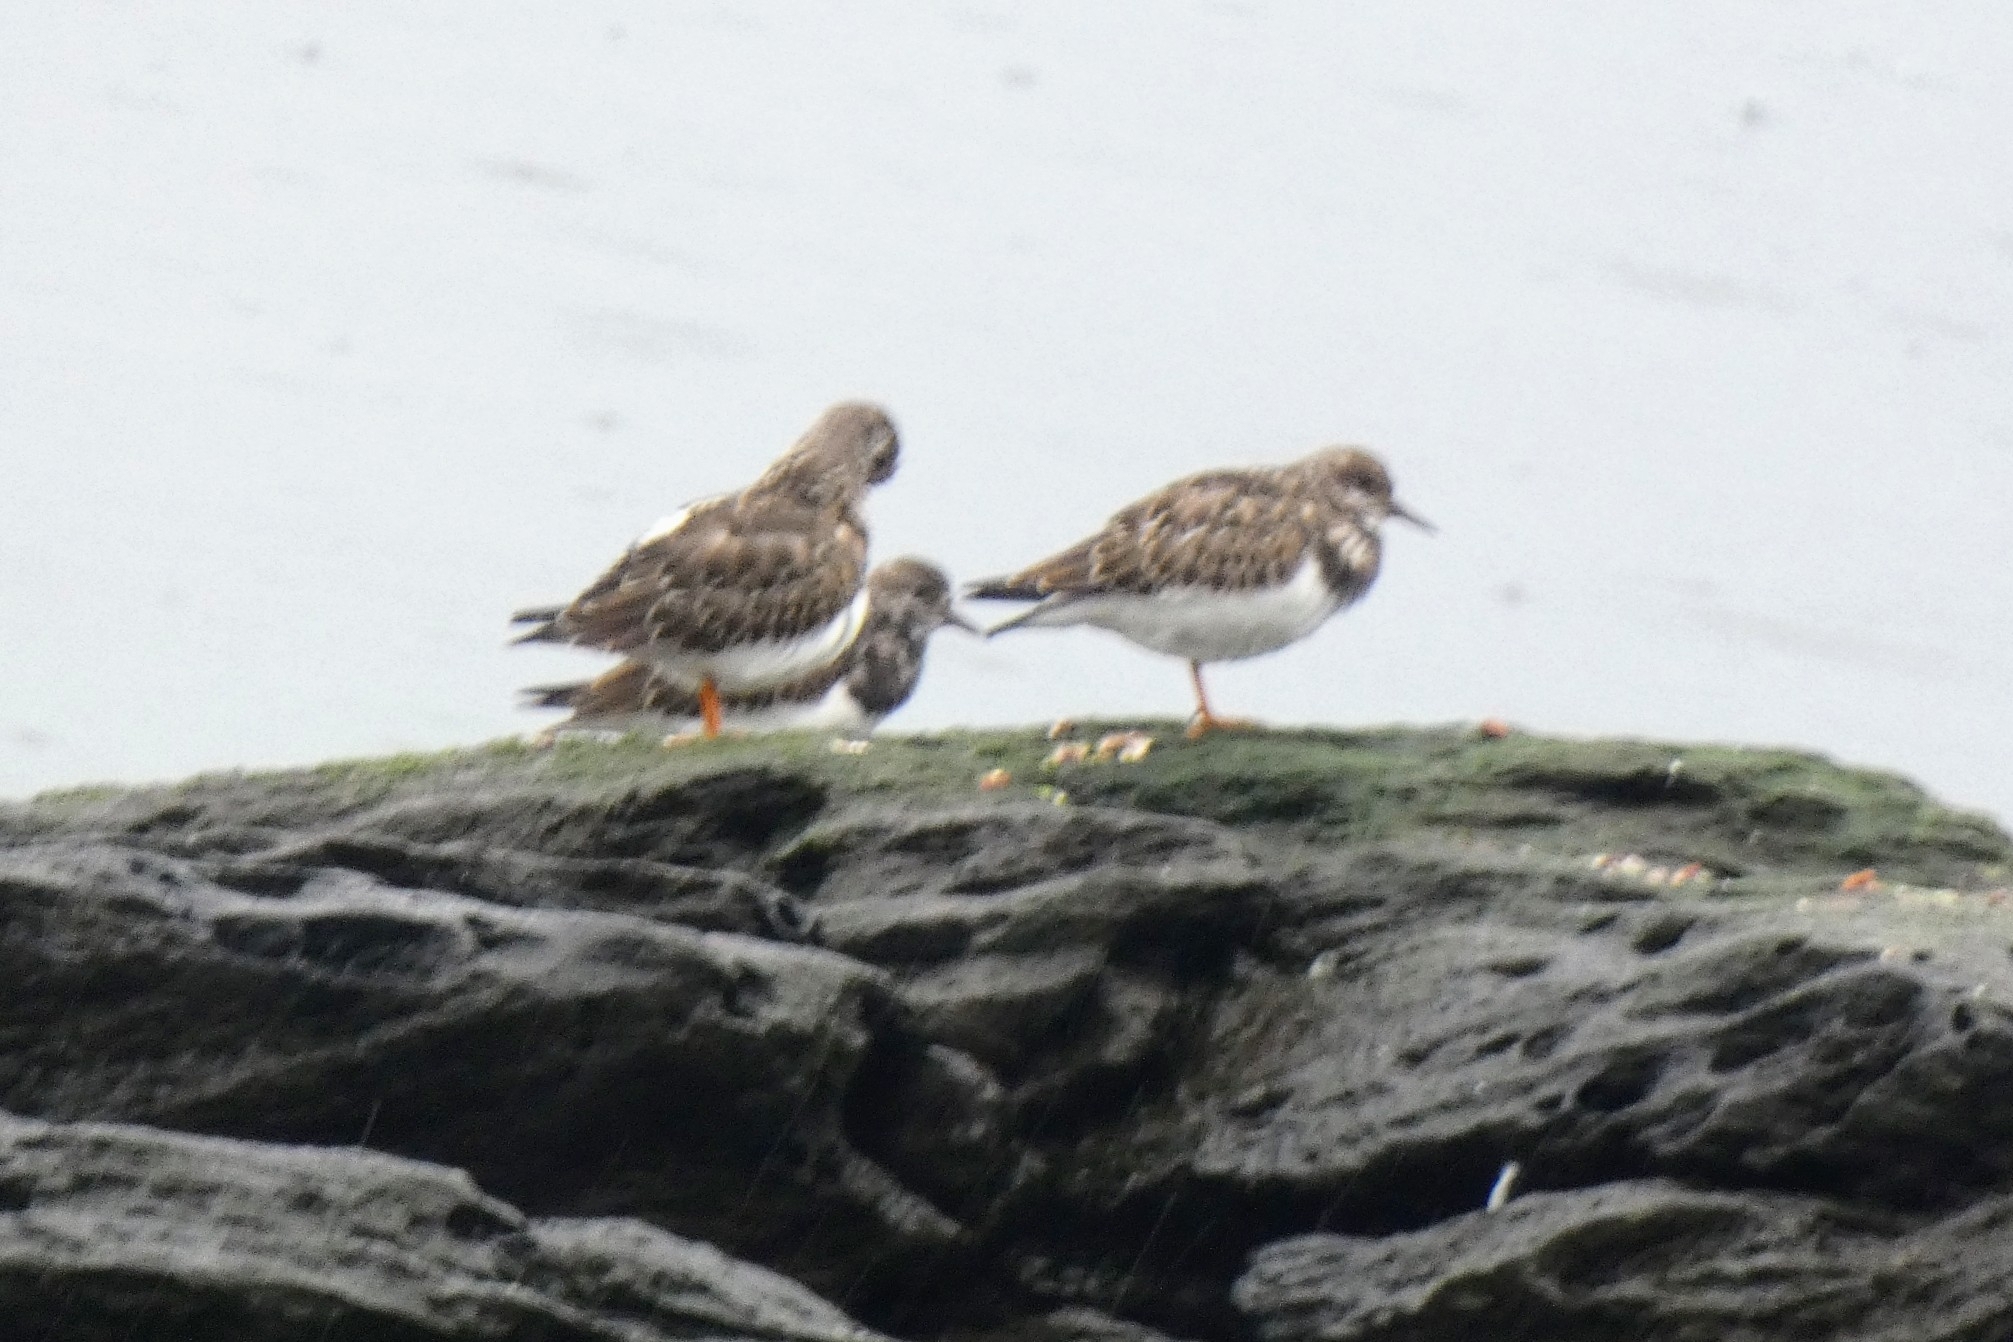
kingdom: Animalia
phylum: Chordata
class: Aves
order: Charadriiformes
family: Scolopacidae
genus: Arenaria
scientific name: Arenaria interpres
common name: Ruddy turnstone
